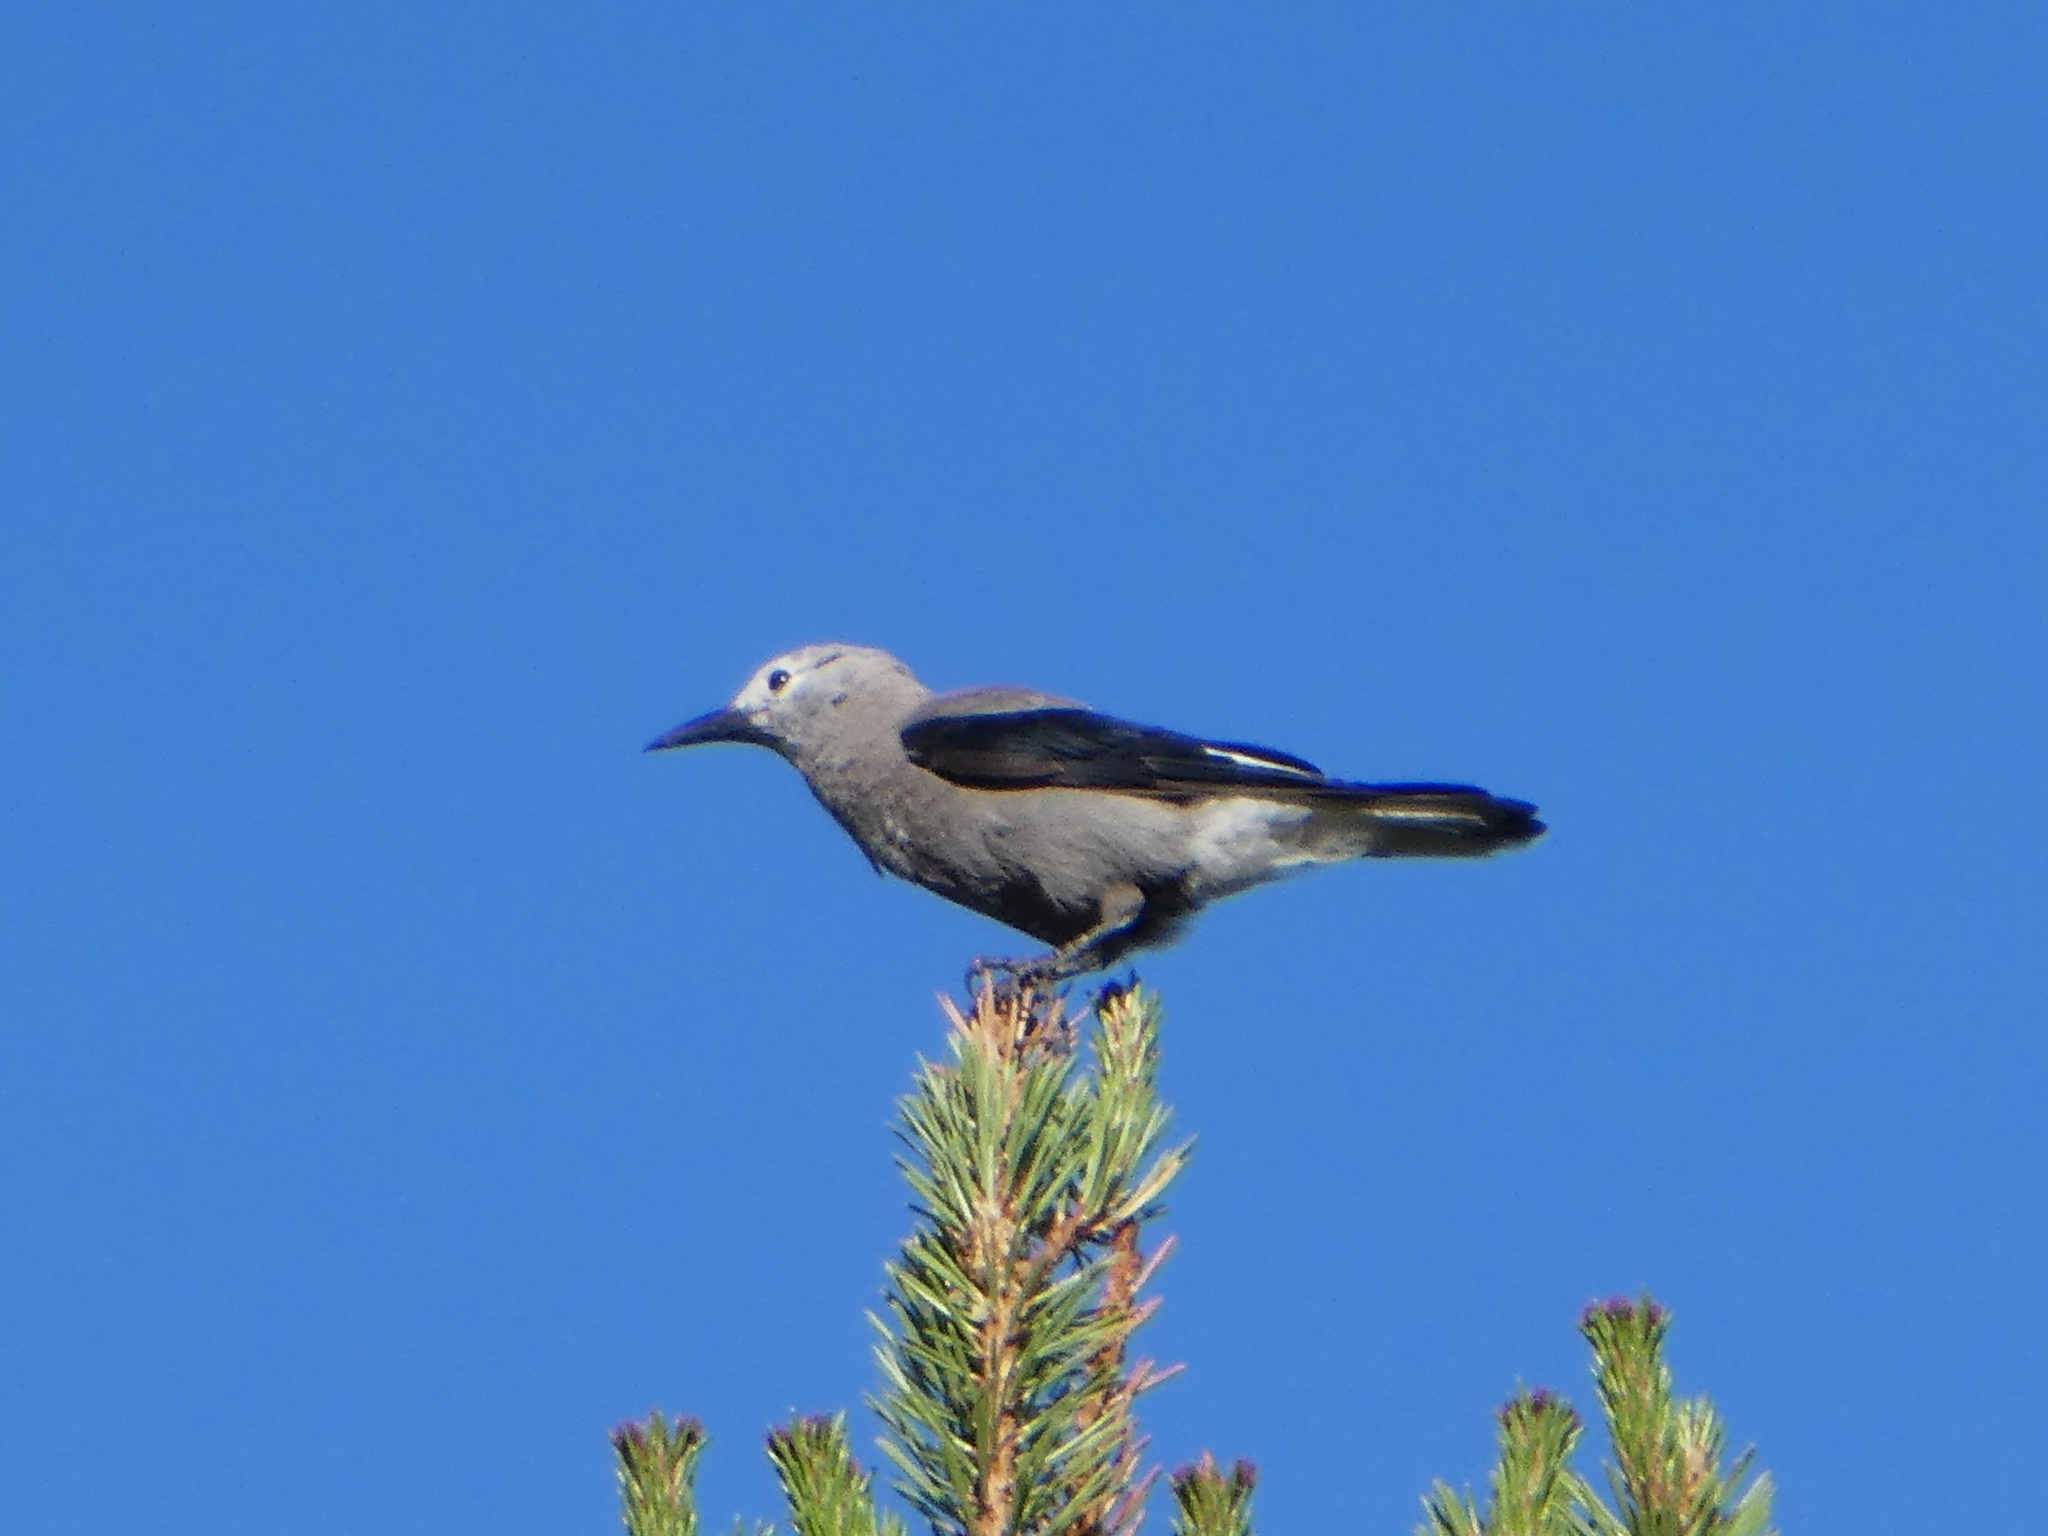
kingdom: Animalia
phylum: Chordata
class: Aves
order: Passeriformes
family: Corvidae
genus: Nucifraga
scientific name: Nucifraga columbiana
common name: Clark's nutcracker
